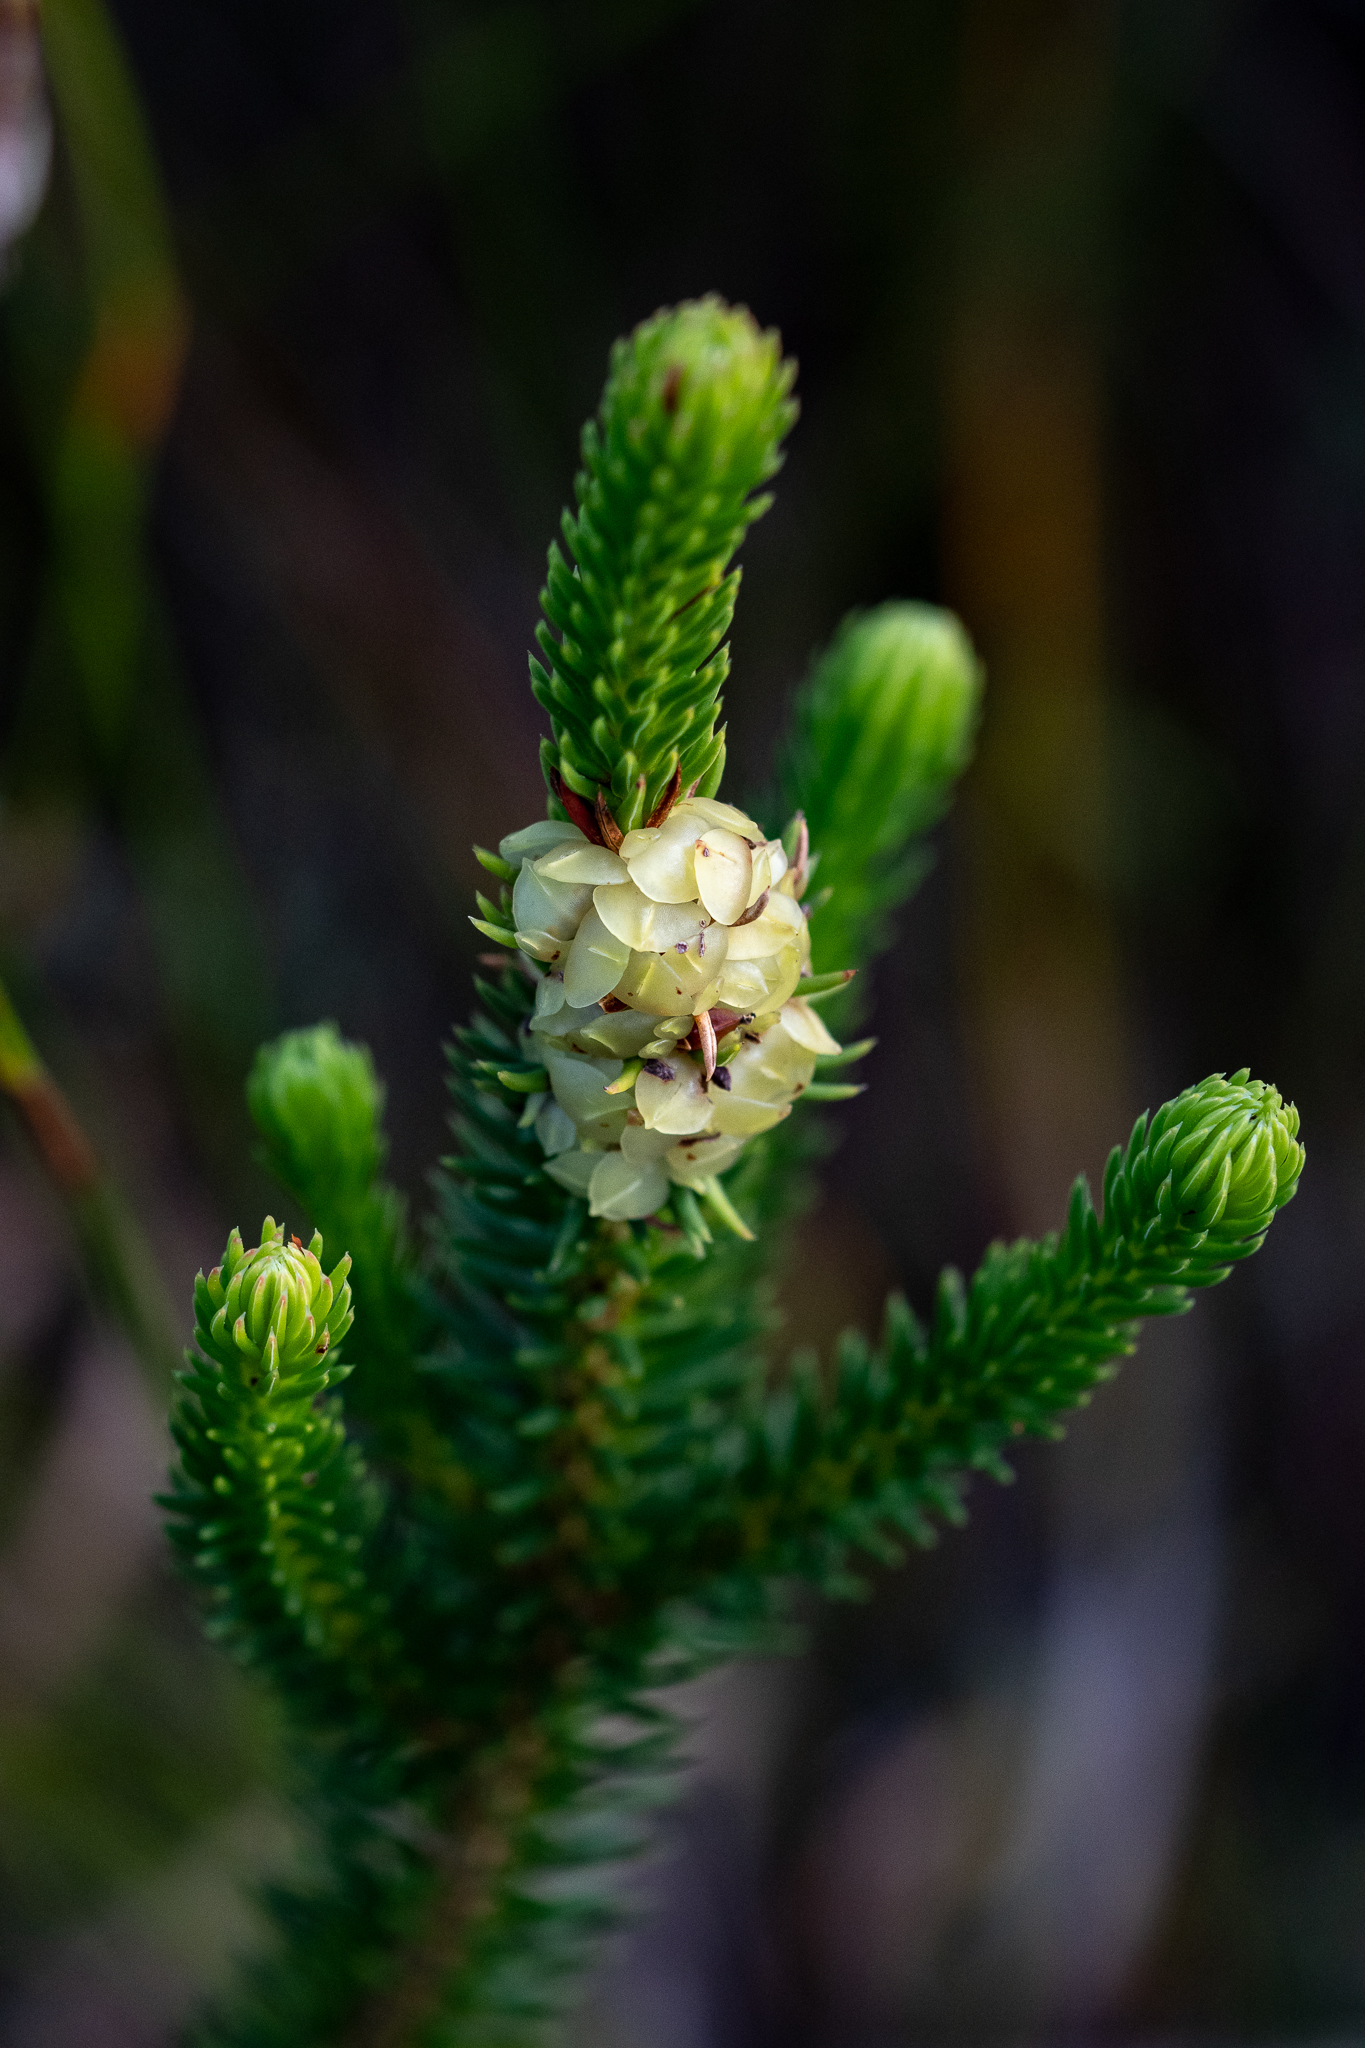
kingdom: Plantae
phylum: Tracheophyta
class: Magnoliopsida
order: Ericales
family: Ericaceae
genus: Erica
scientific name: Erica sessiliflora
